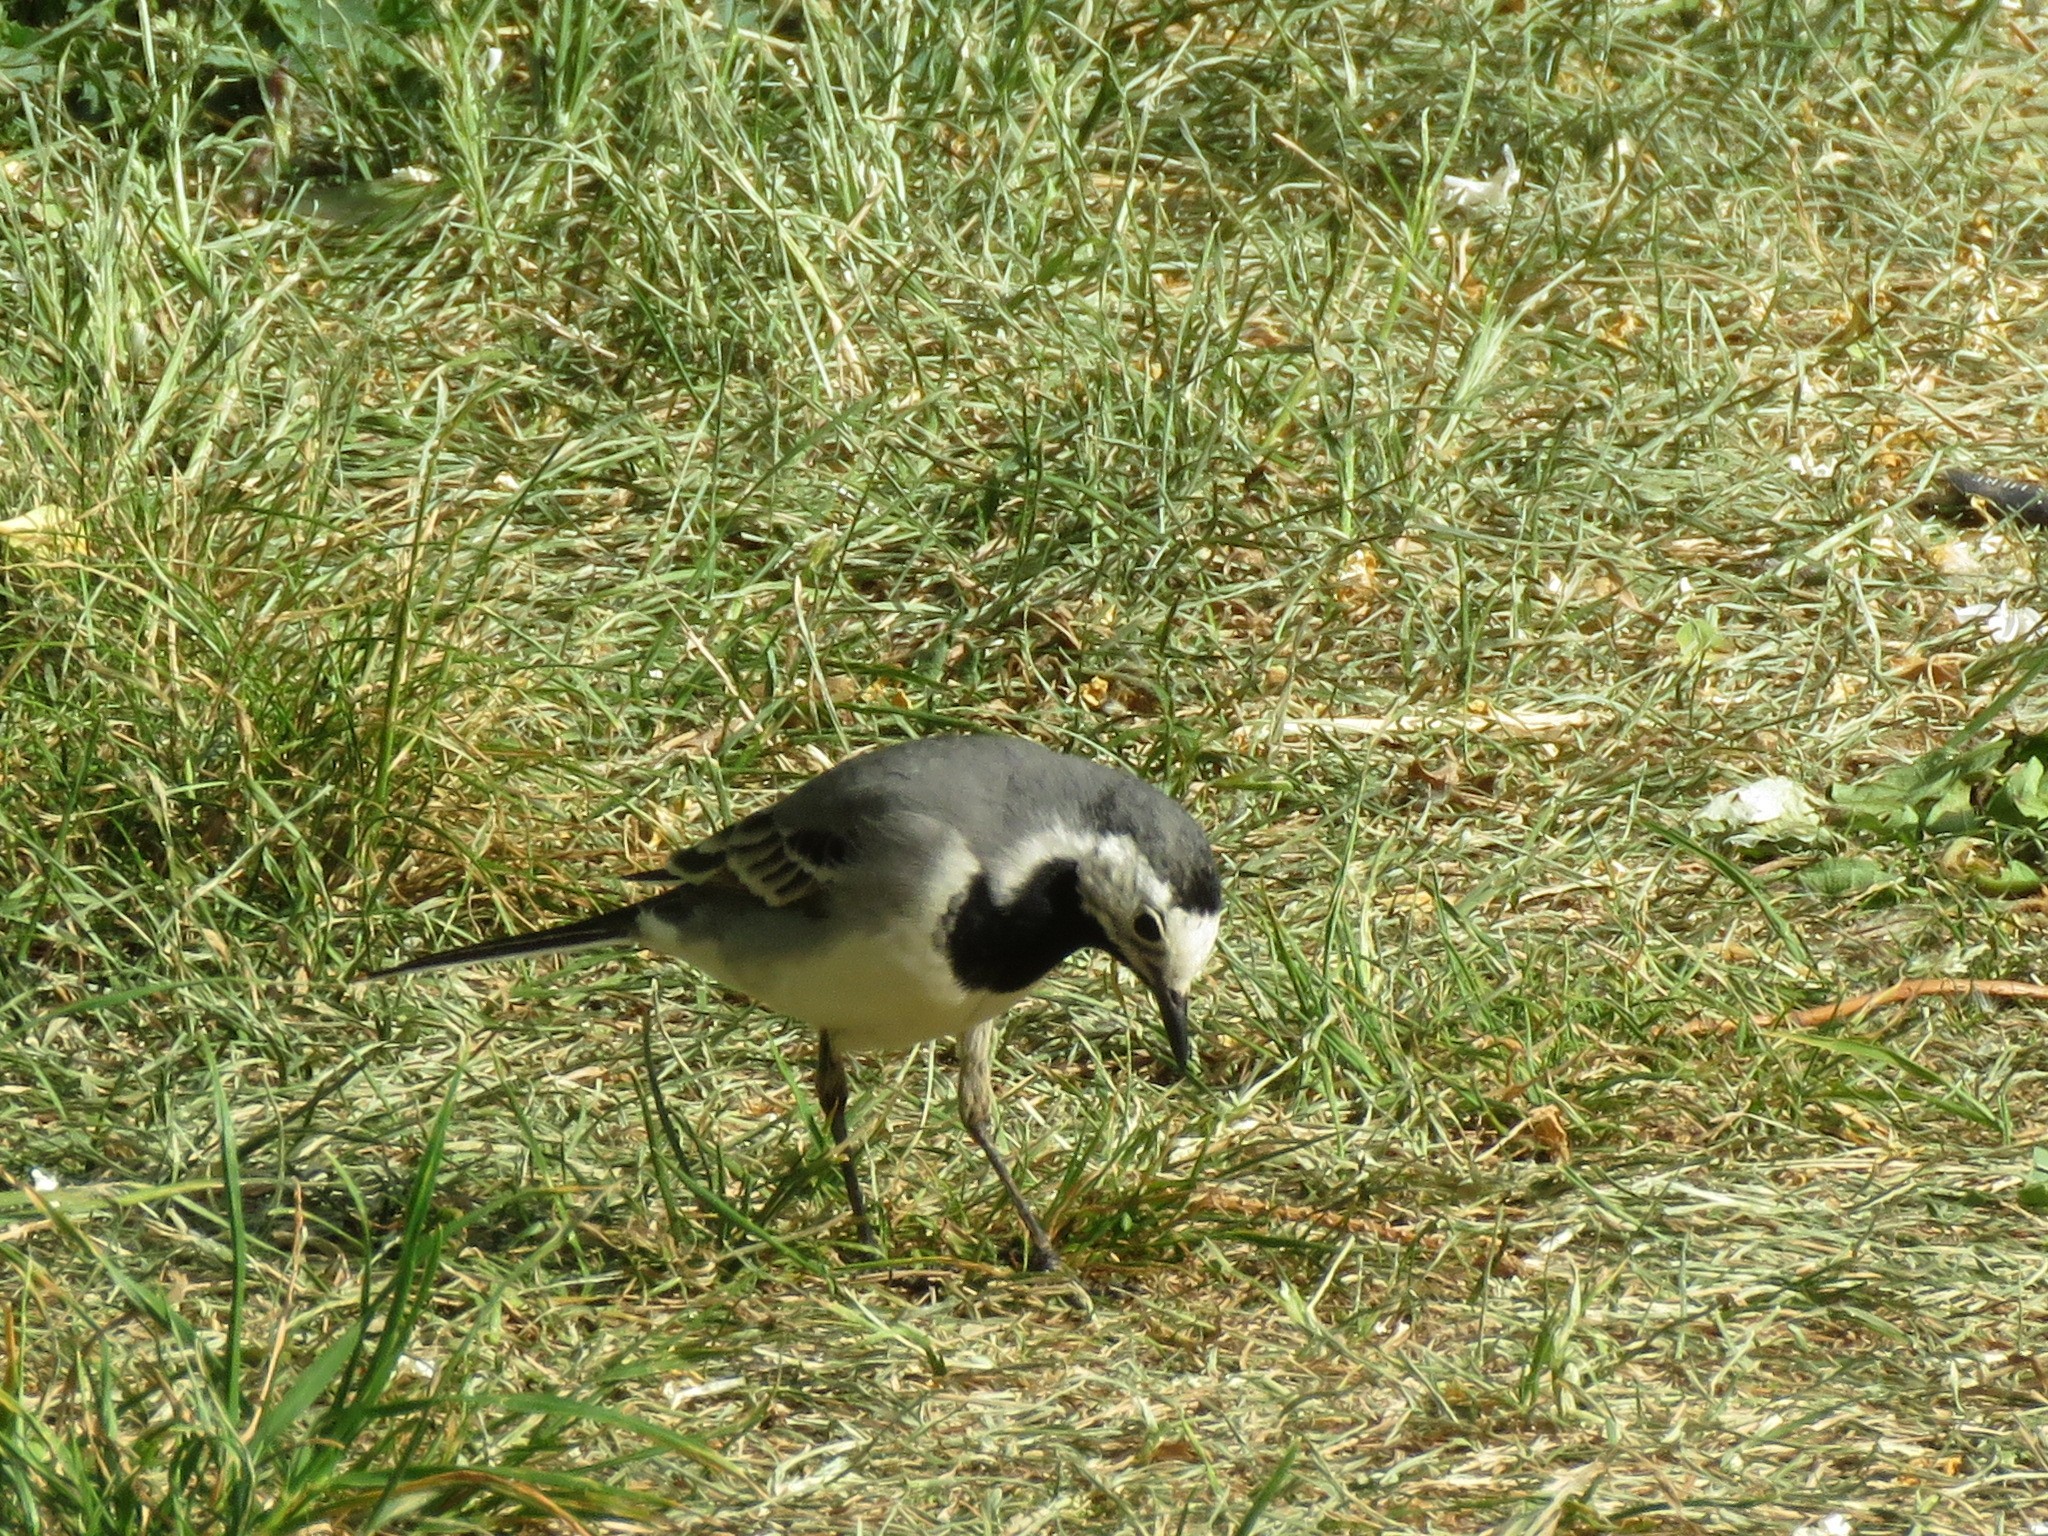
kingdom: Animalia
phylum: Chordata
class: Aves
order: Passeriformes
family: Motacillidae
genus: Motacilla
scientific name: Motacilla alba
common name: White wagtail
